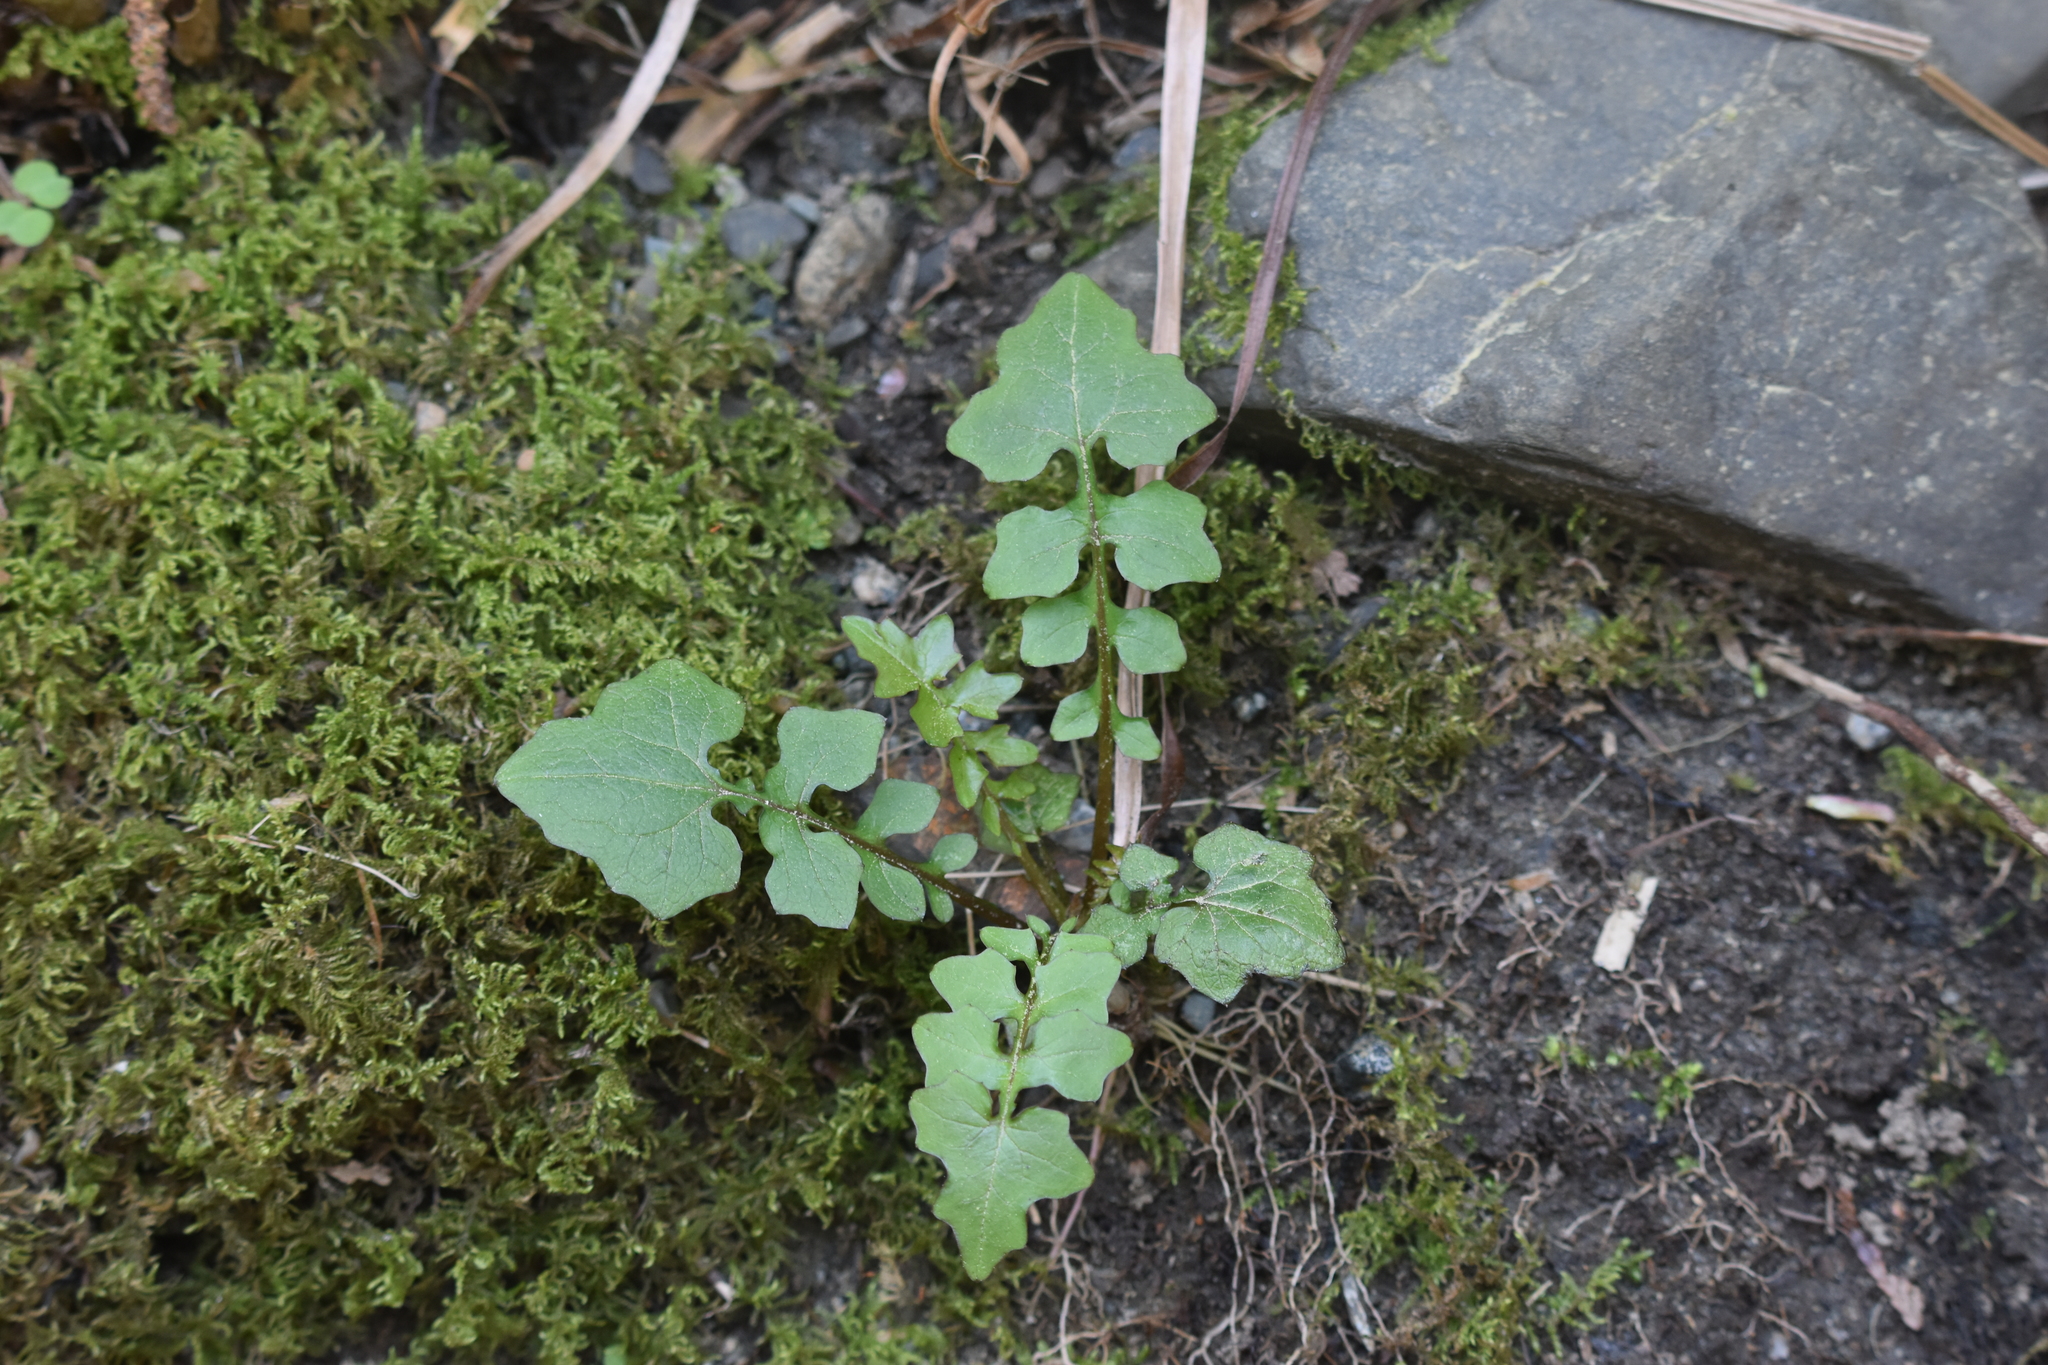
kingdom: Plantae
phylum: Tracheophyta
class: Magnoliopsida
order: Asterales
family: Asteraceae
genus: Mycelis
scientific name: Mycelis muralis
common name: Wall lettuce
